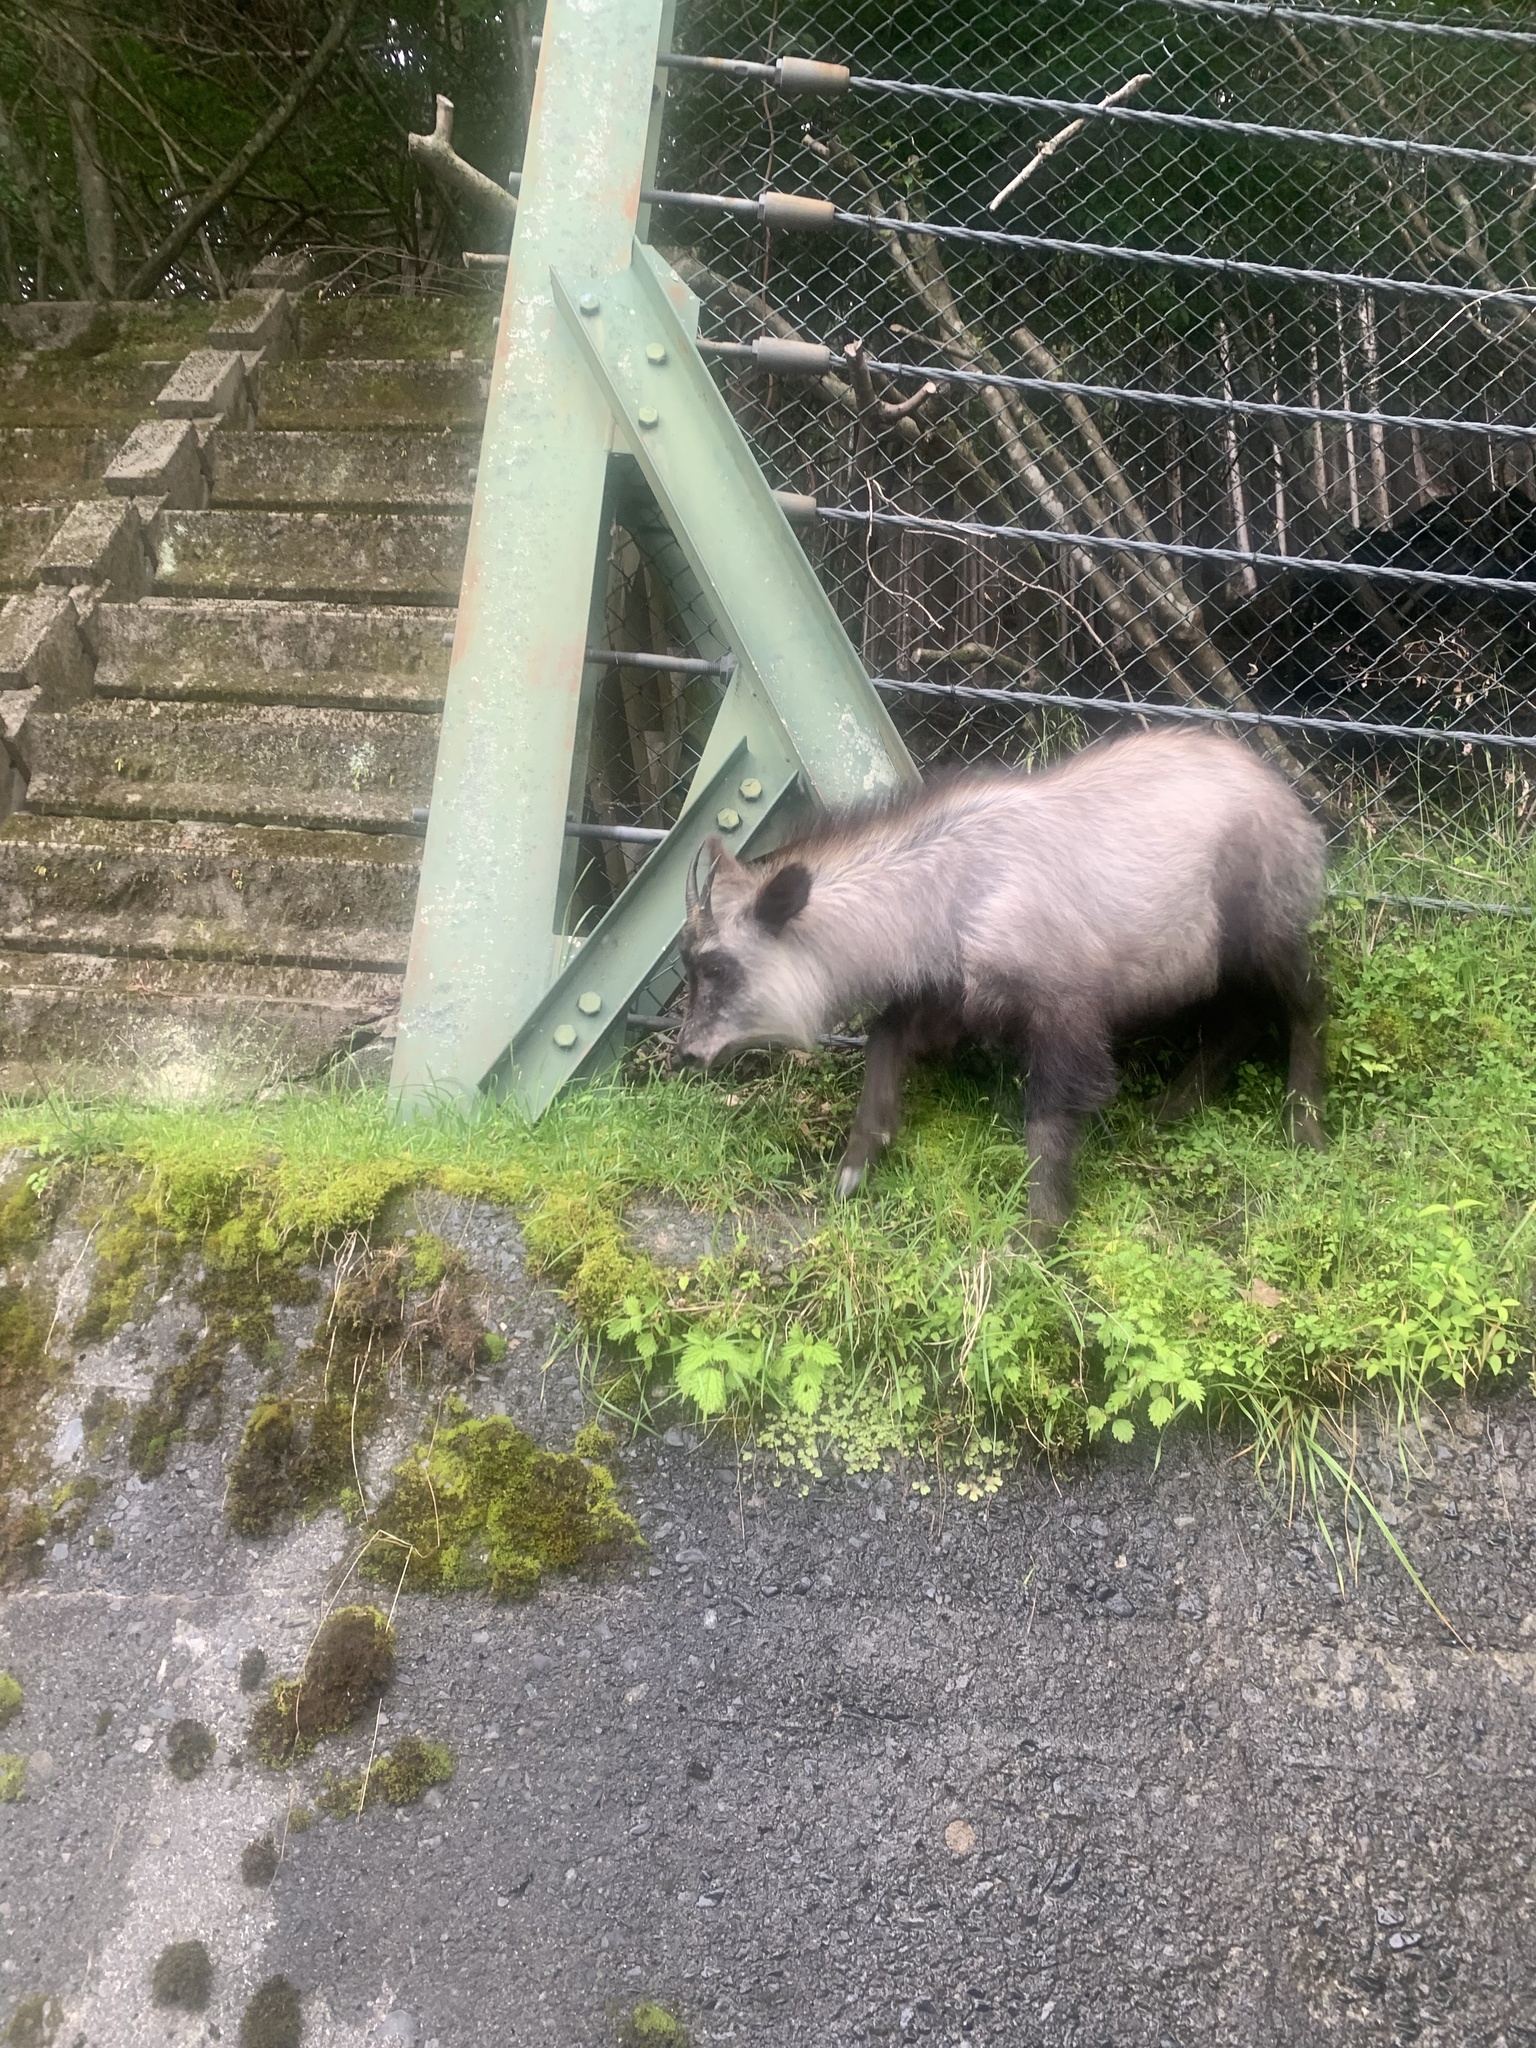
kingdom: Animalia
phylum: Chordata
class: Mammalia
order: Artiodactyla
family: Bovidae
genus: Capricornis
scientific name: Capricornis crispus
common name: Japanese serow
